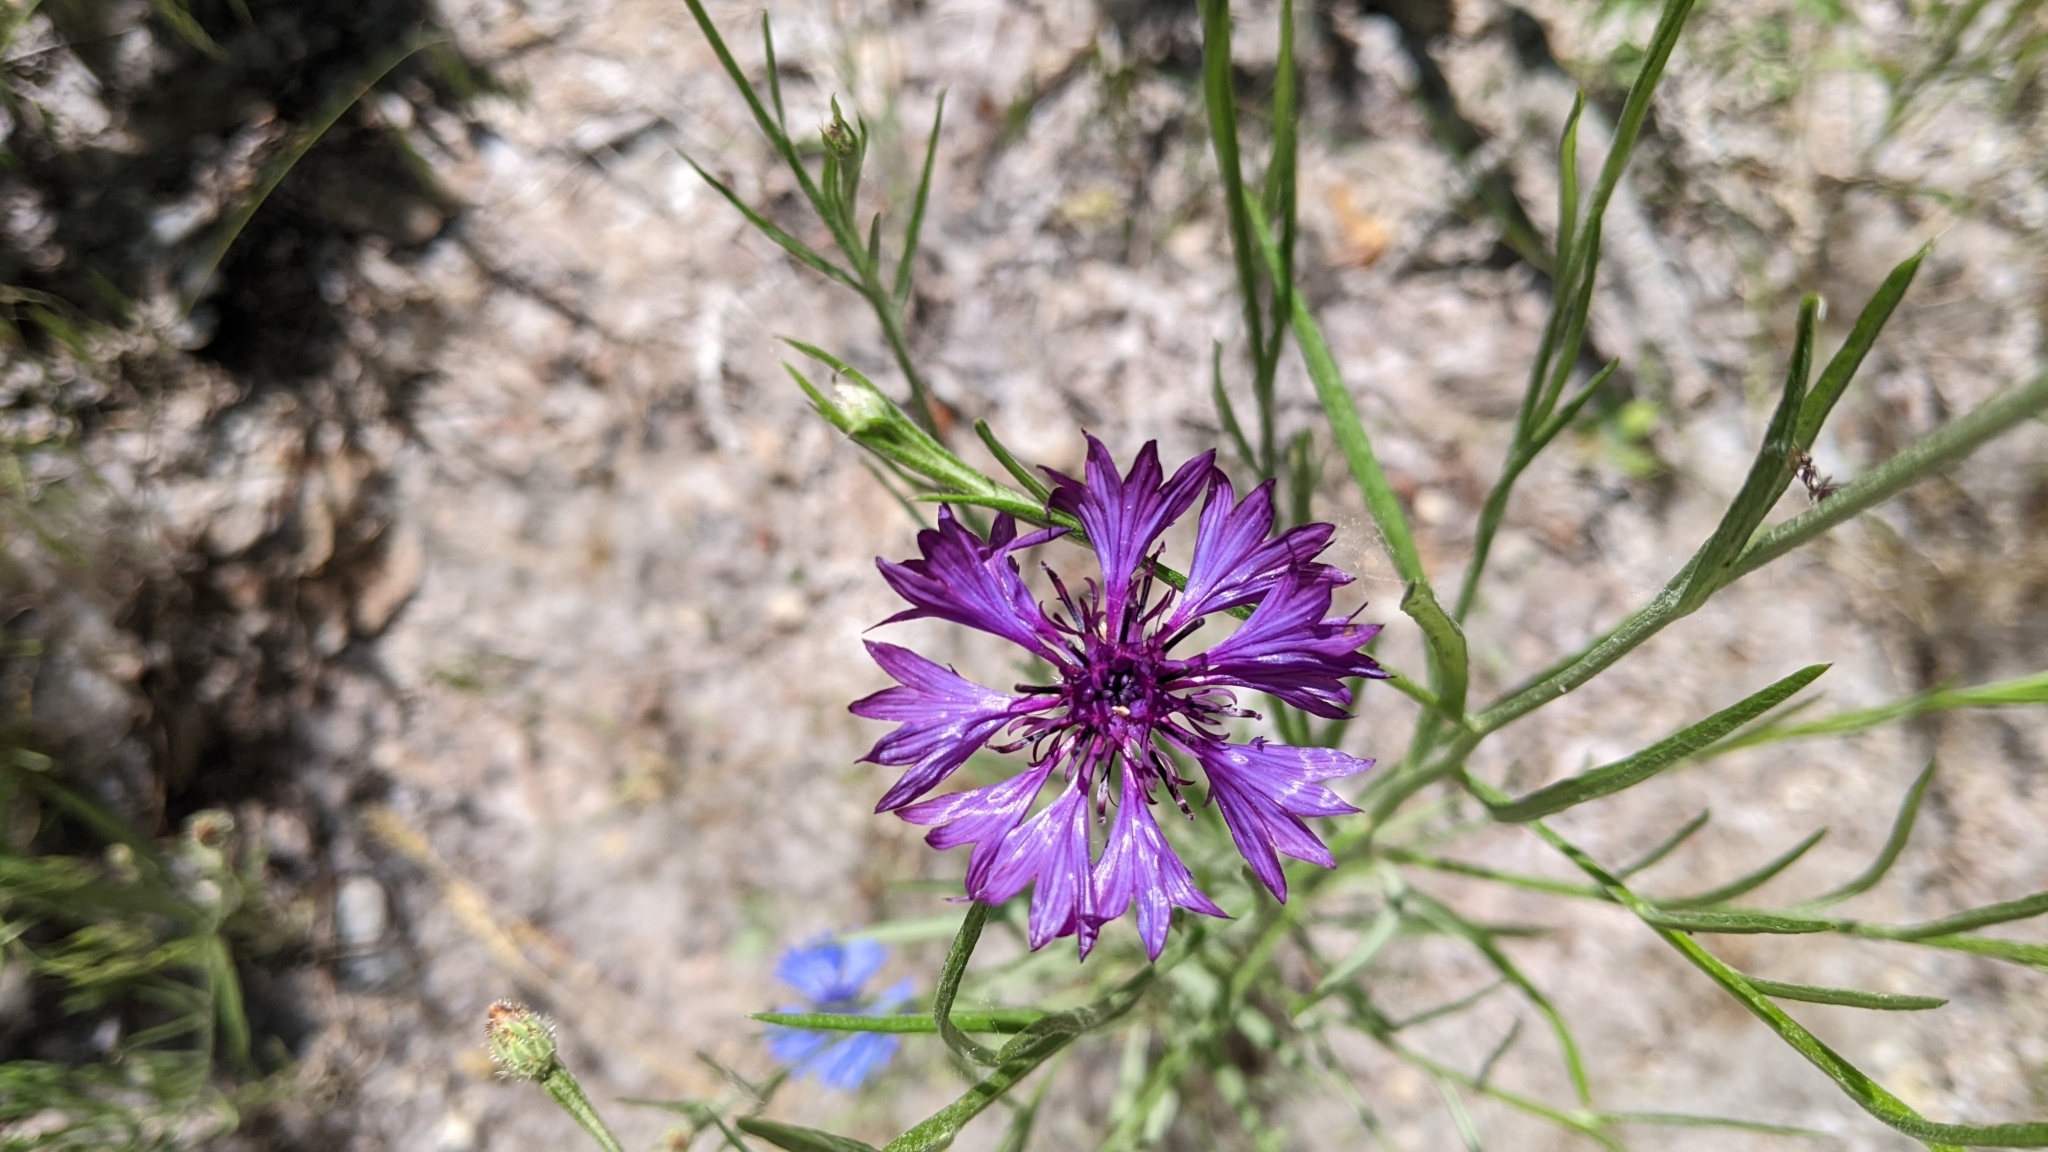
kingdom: Plantae
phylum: Tracheophyta
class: Magnoliopsida
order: Asterales
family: Asteraceae
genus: Centaurea
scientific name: Centaurea cyanus
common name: Cornflower
